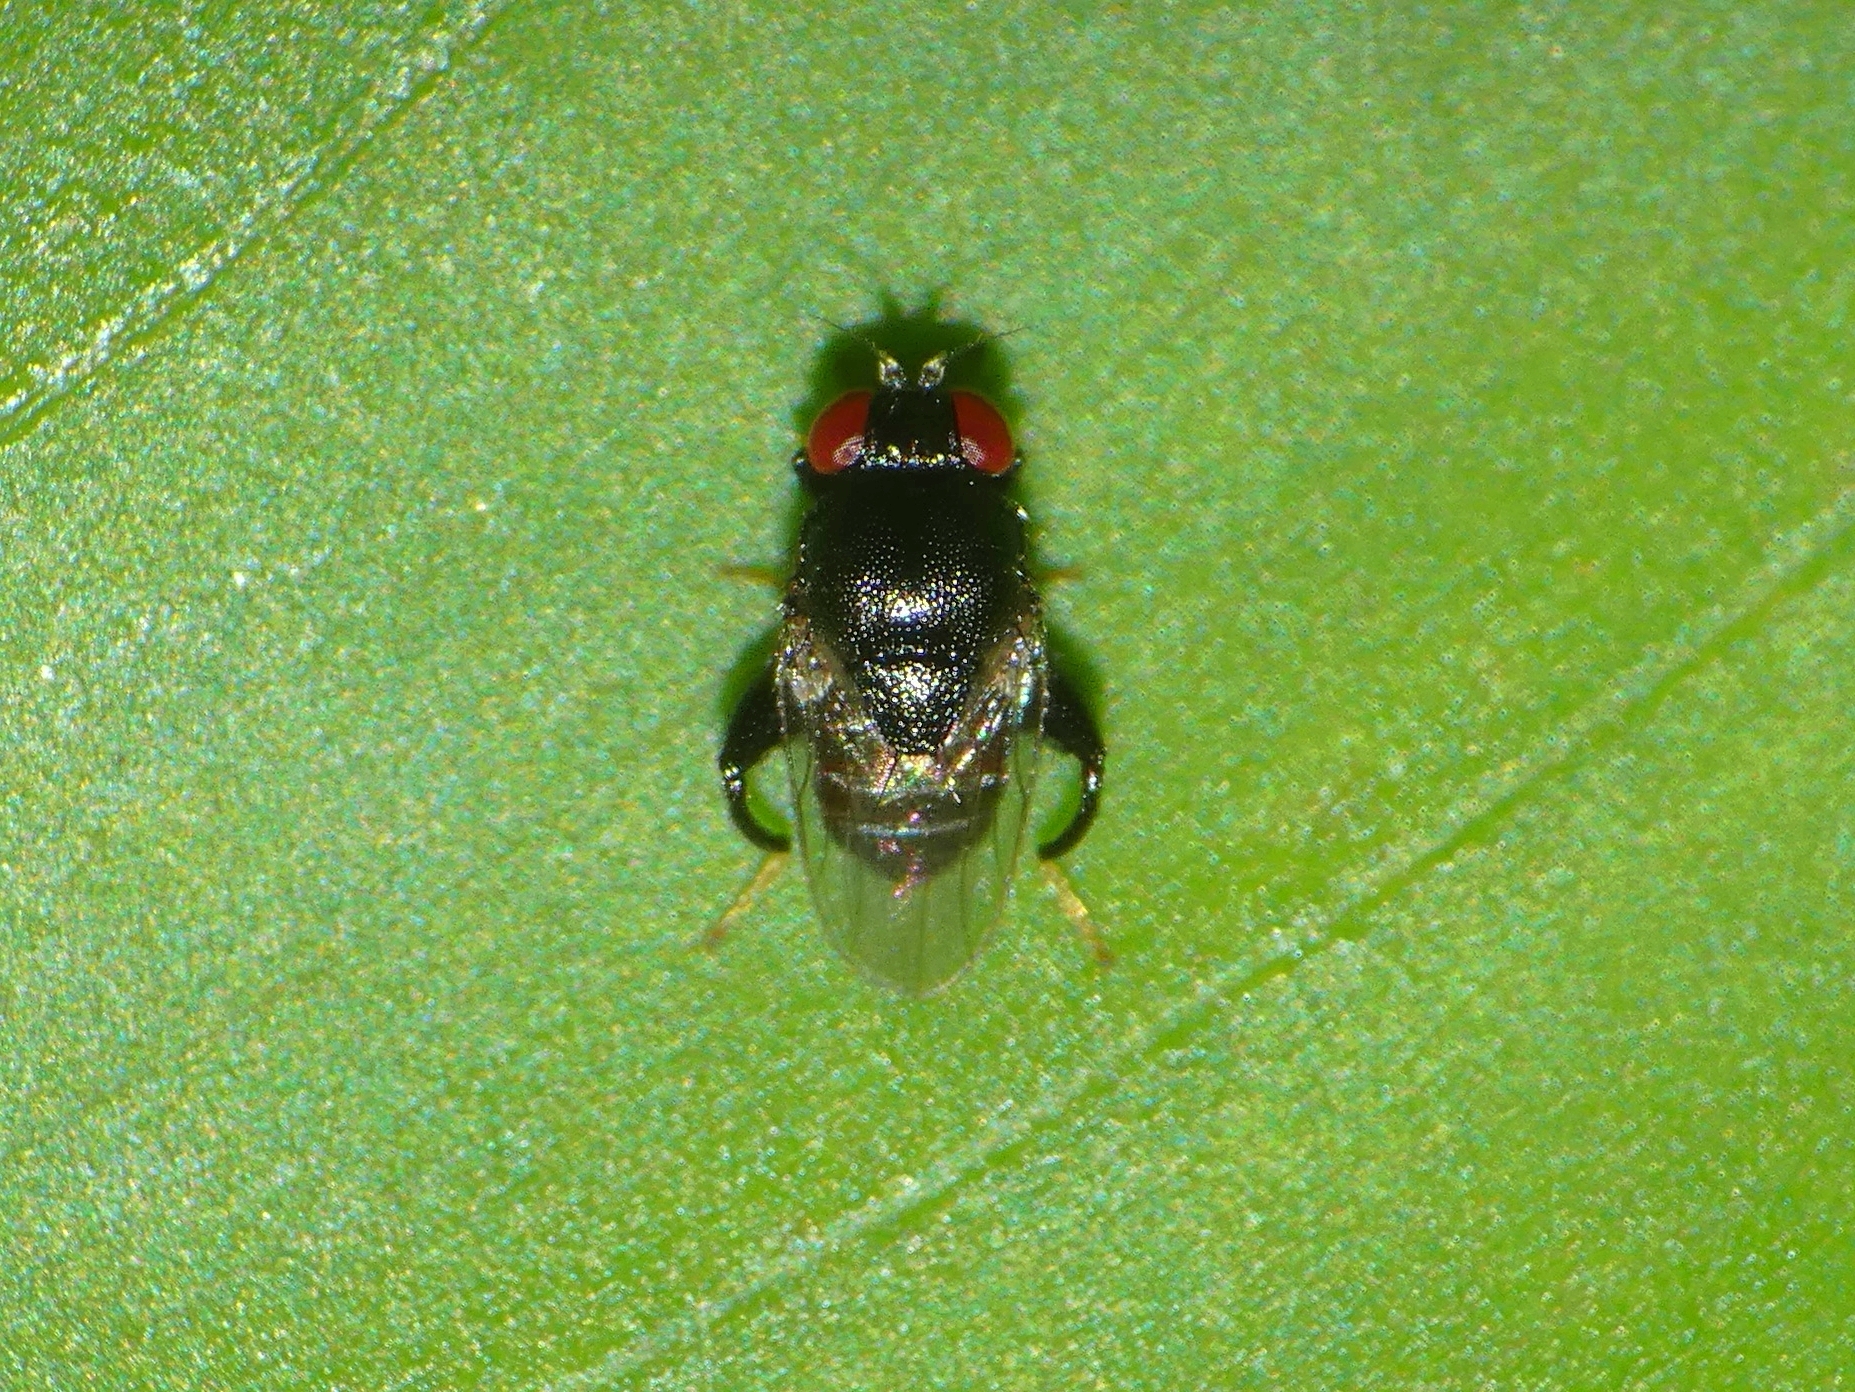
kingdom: Animalia
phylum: Arthropoda
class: Insecta
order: Diptera
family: Chloropidae
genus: Rhodesiella
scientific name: Rhodesiella magna
